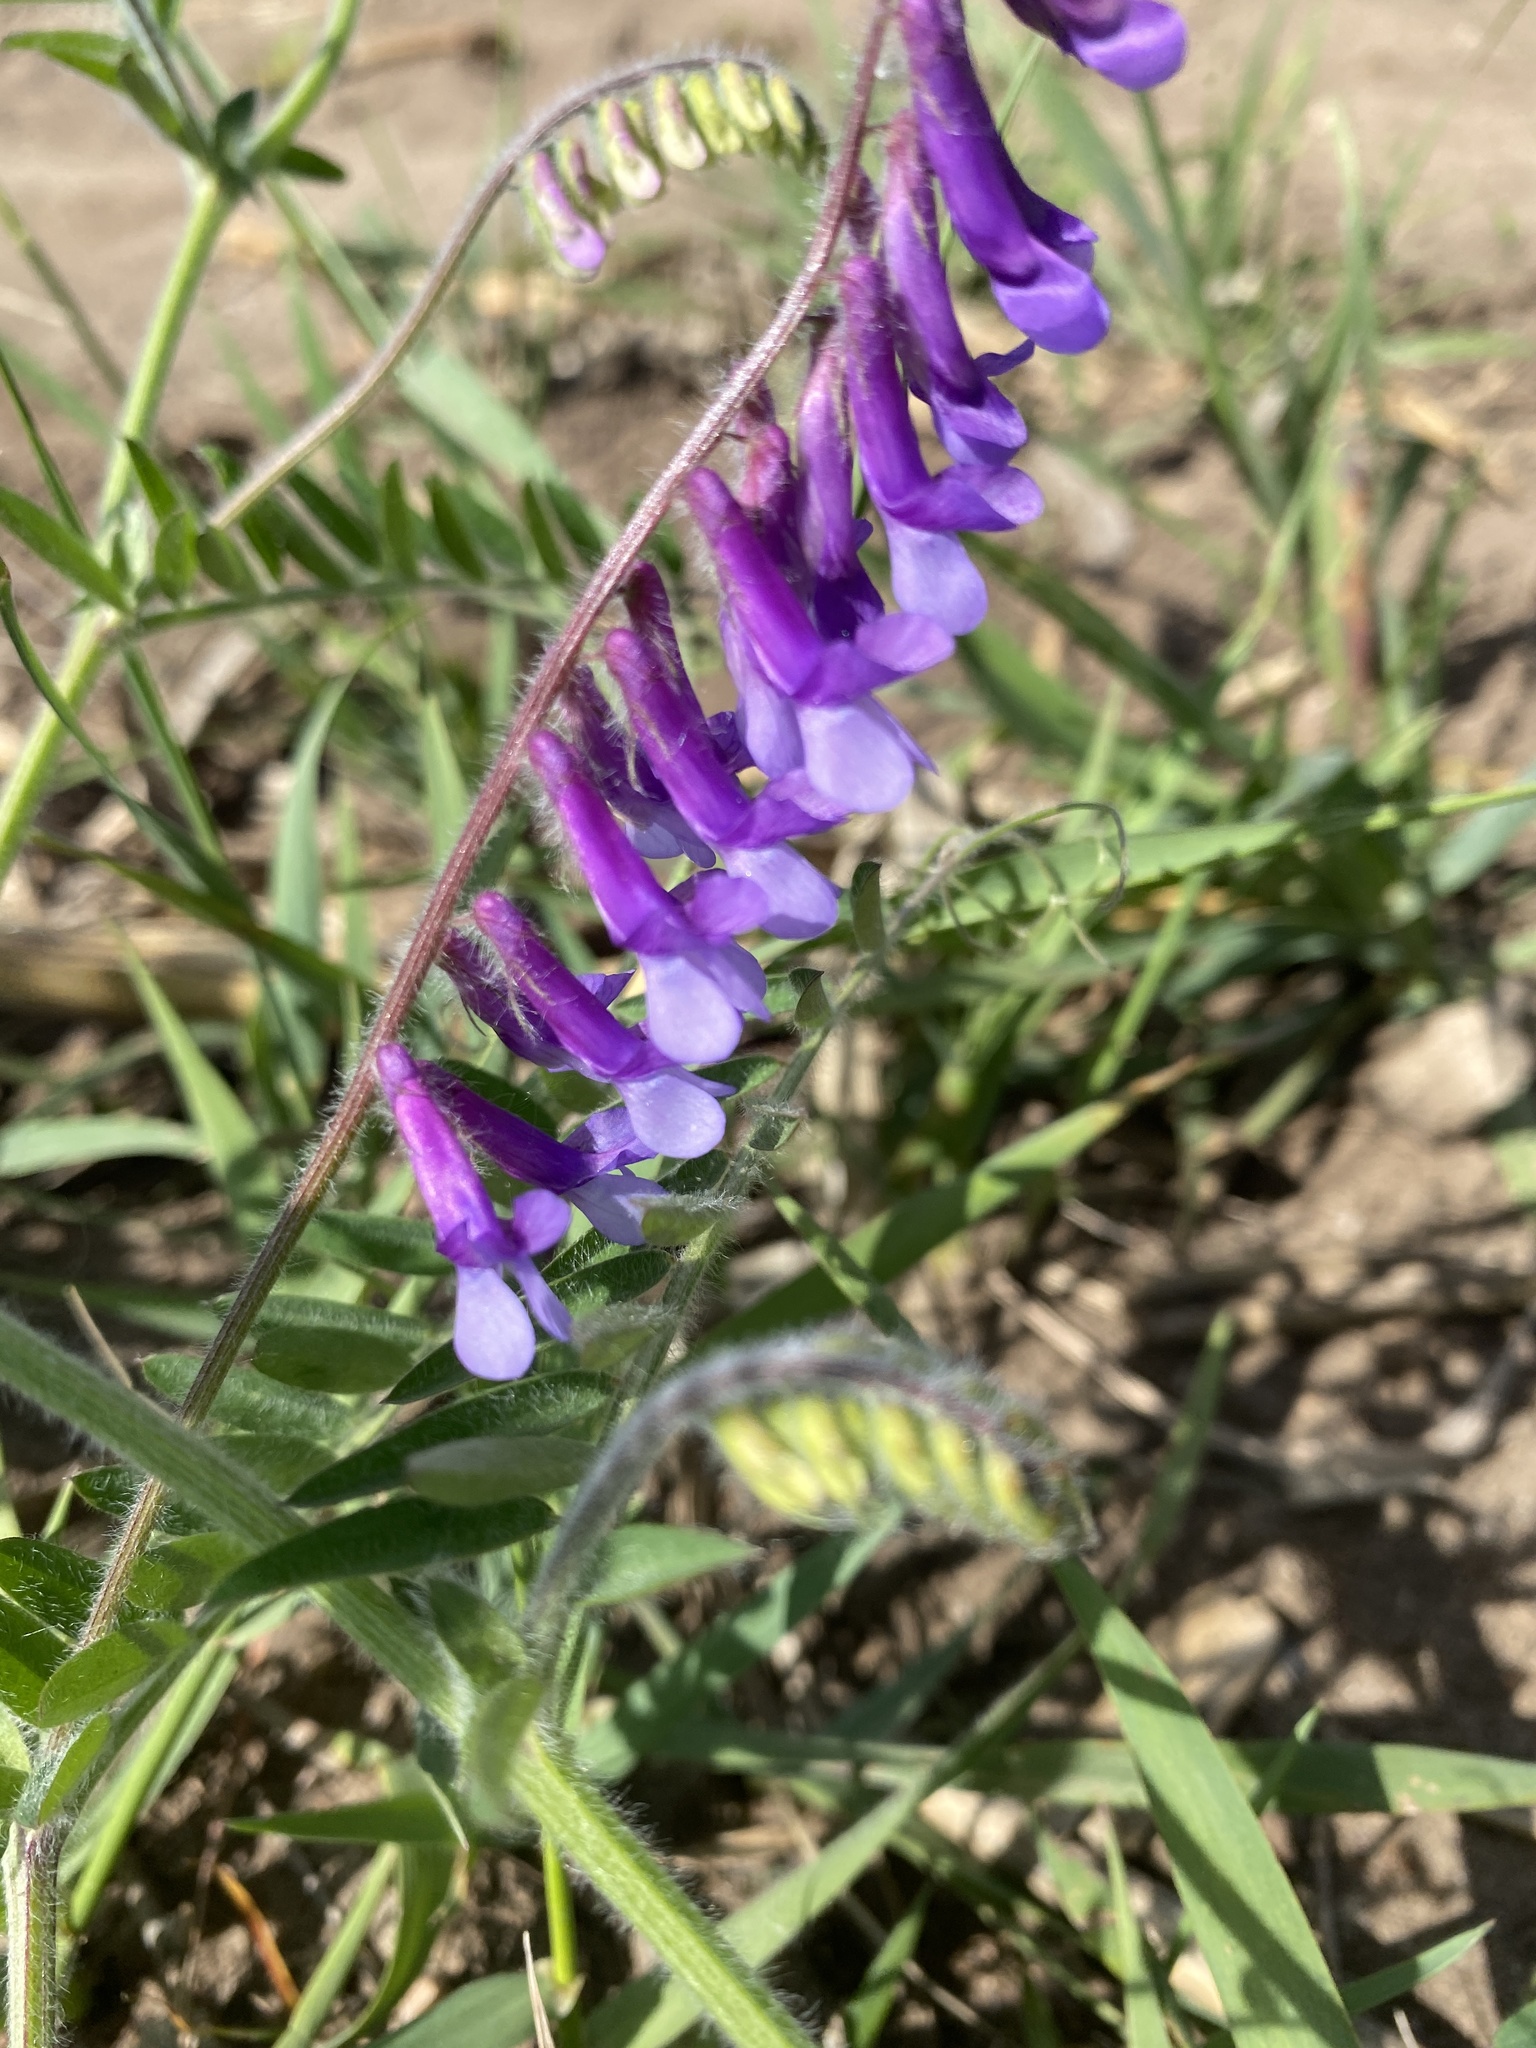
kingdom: Plantae
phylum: Tracheophyta
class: Magnoliopsida
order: Fabales
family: Fabaceae
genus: Vicia
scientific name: Vicia villosa
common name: Fodder vetch
